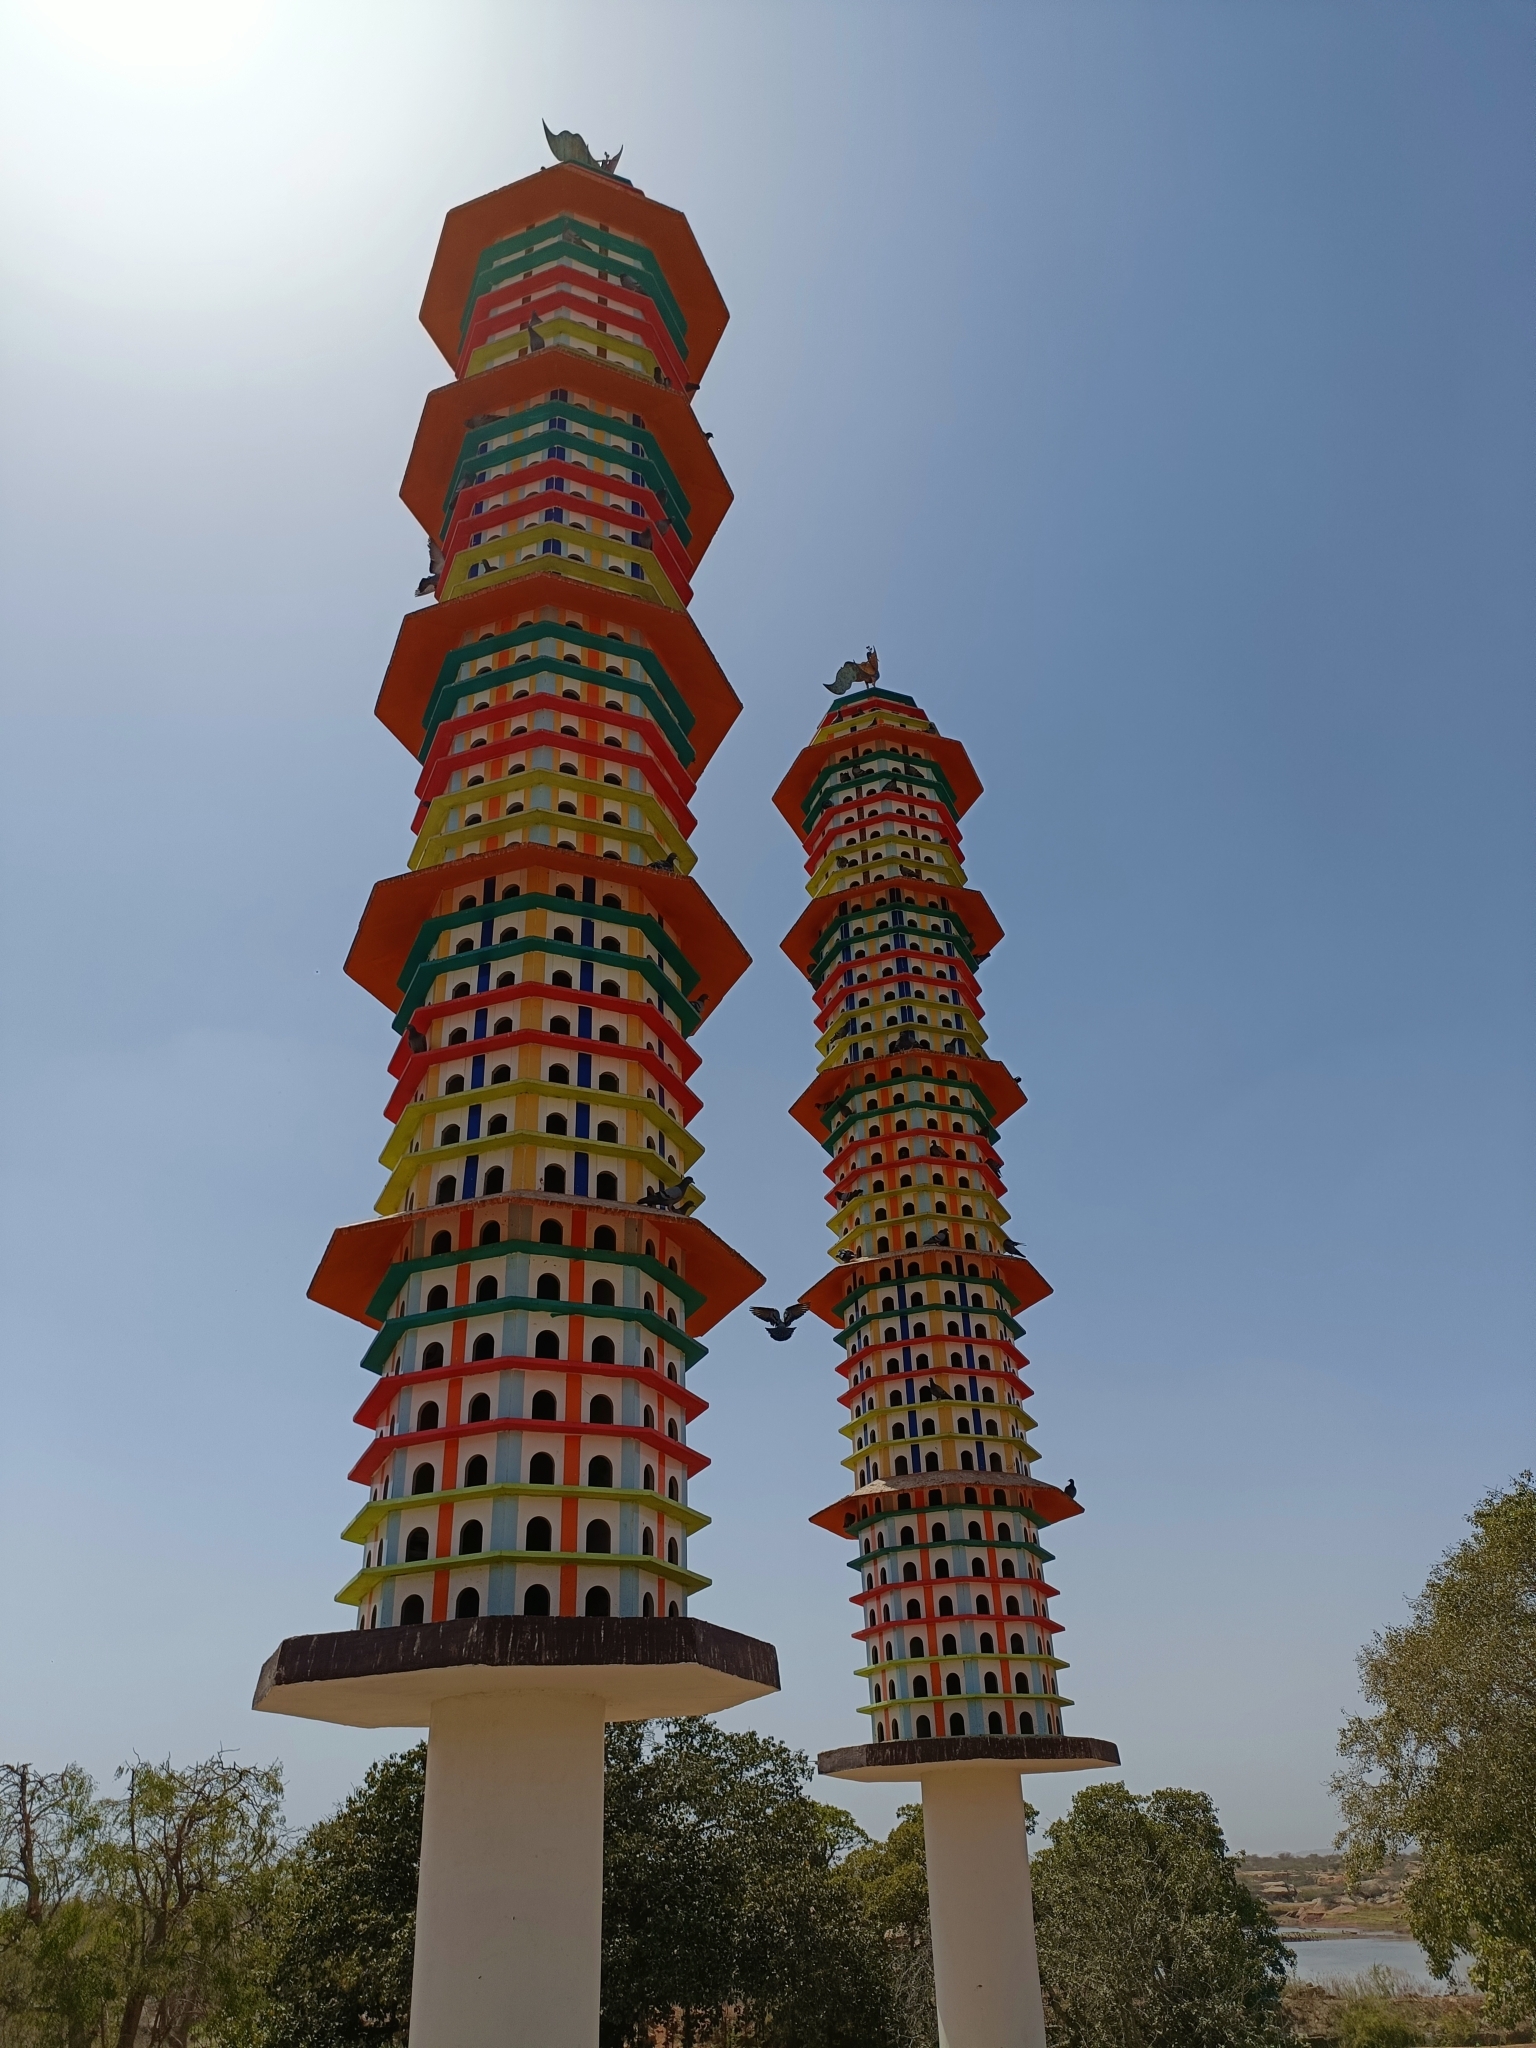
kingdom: Animalia
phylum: Chordata
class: Aves
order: Columbiformes
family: Columbidae
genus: Columba
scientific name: Columba livia
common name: Rock pigeon
